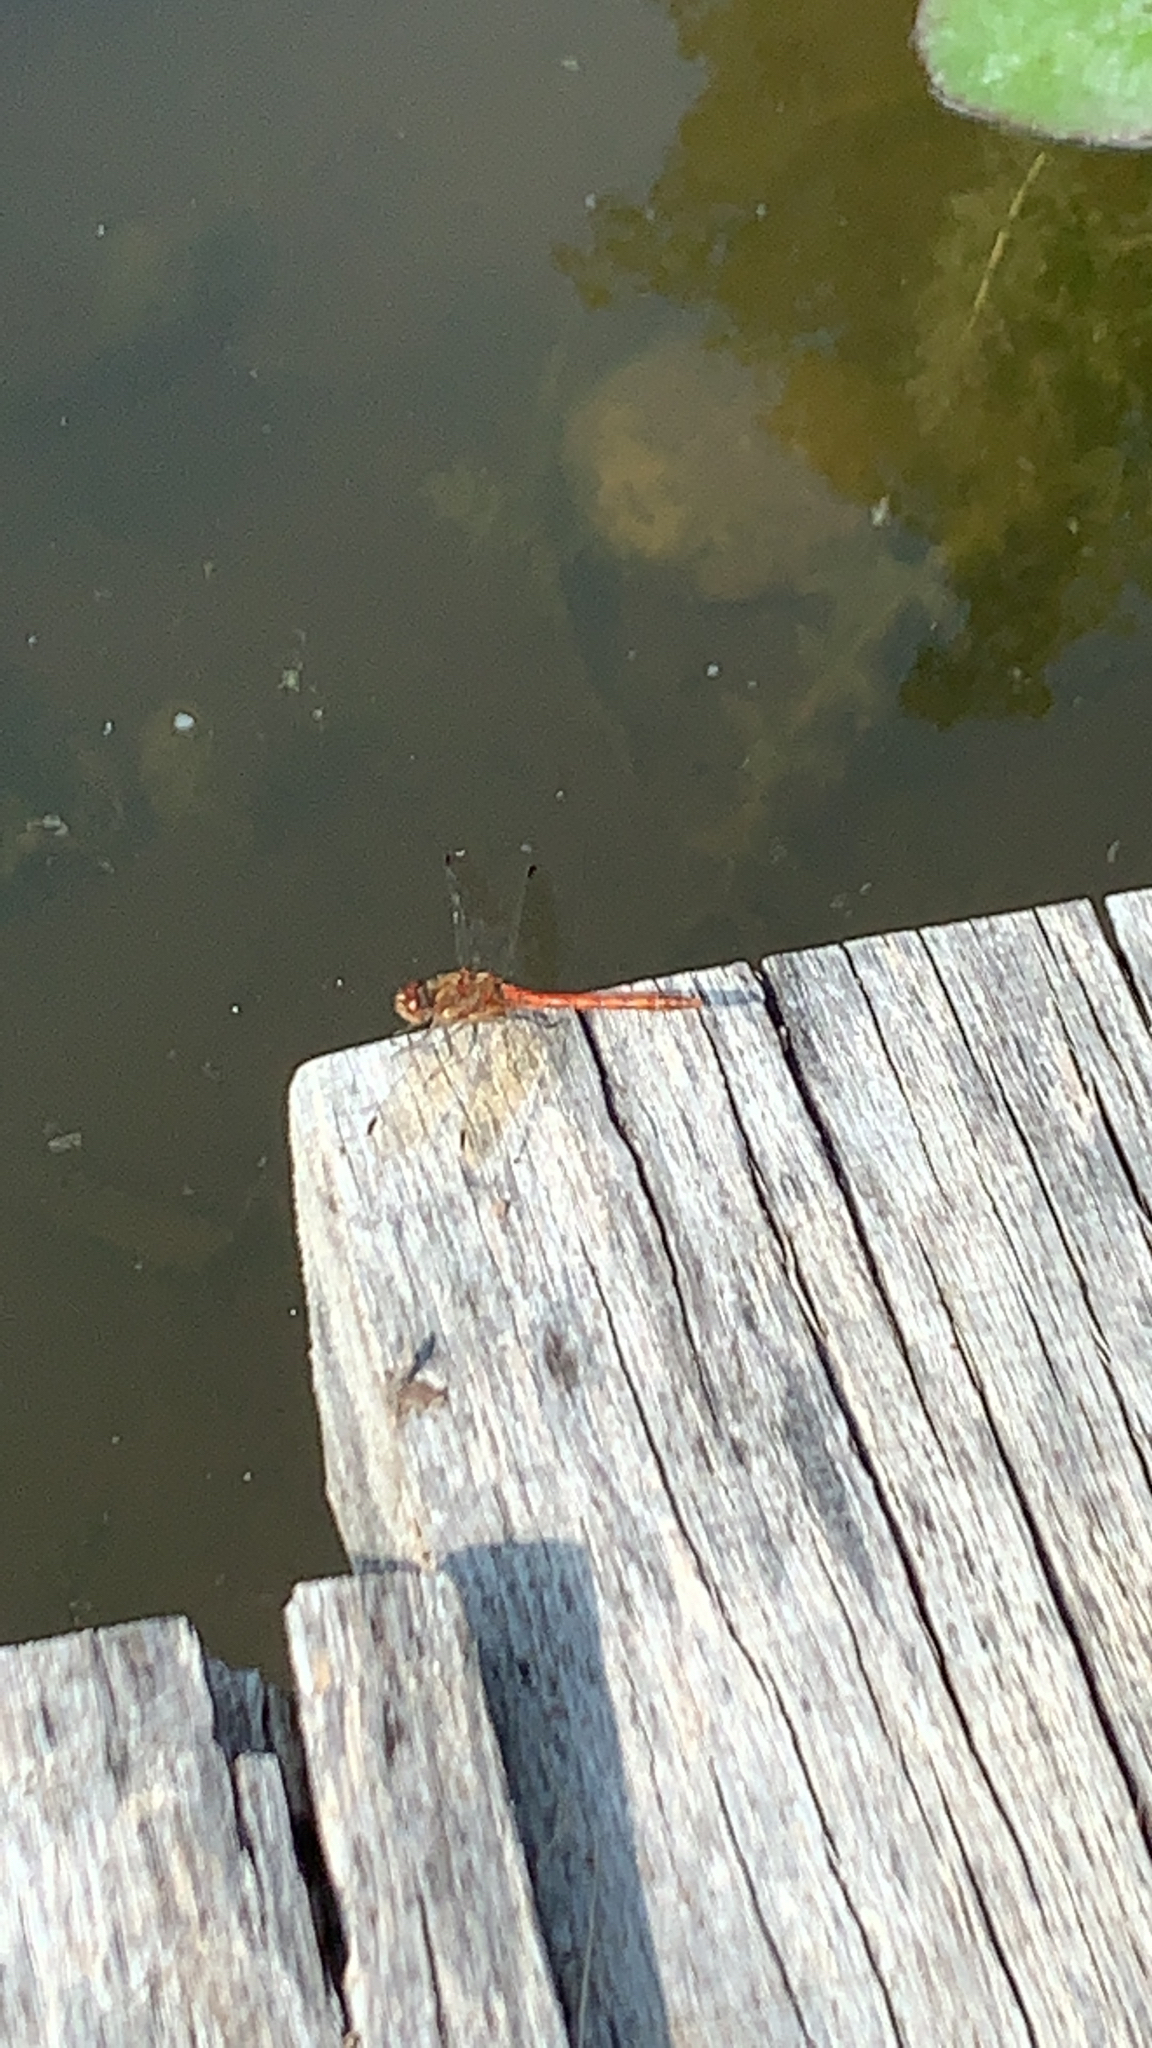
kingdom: Animalia
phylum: Arthropoda
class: Insecta
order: Odonata
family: Libellulidae
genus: Sympetrum
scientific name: Sympetrum striolatum
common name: Common darter
